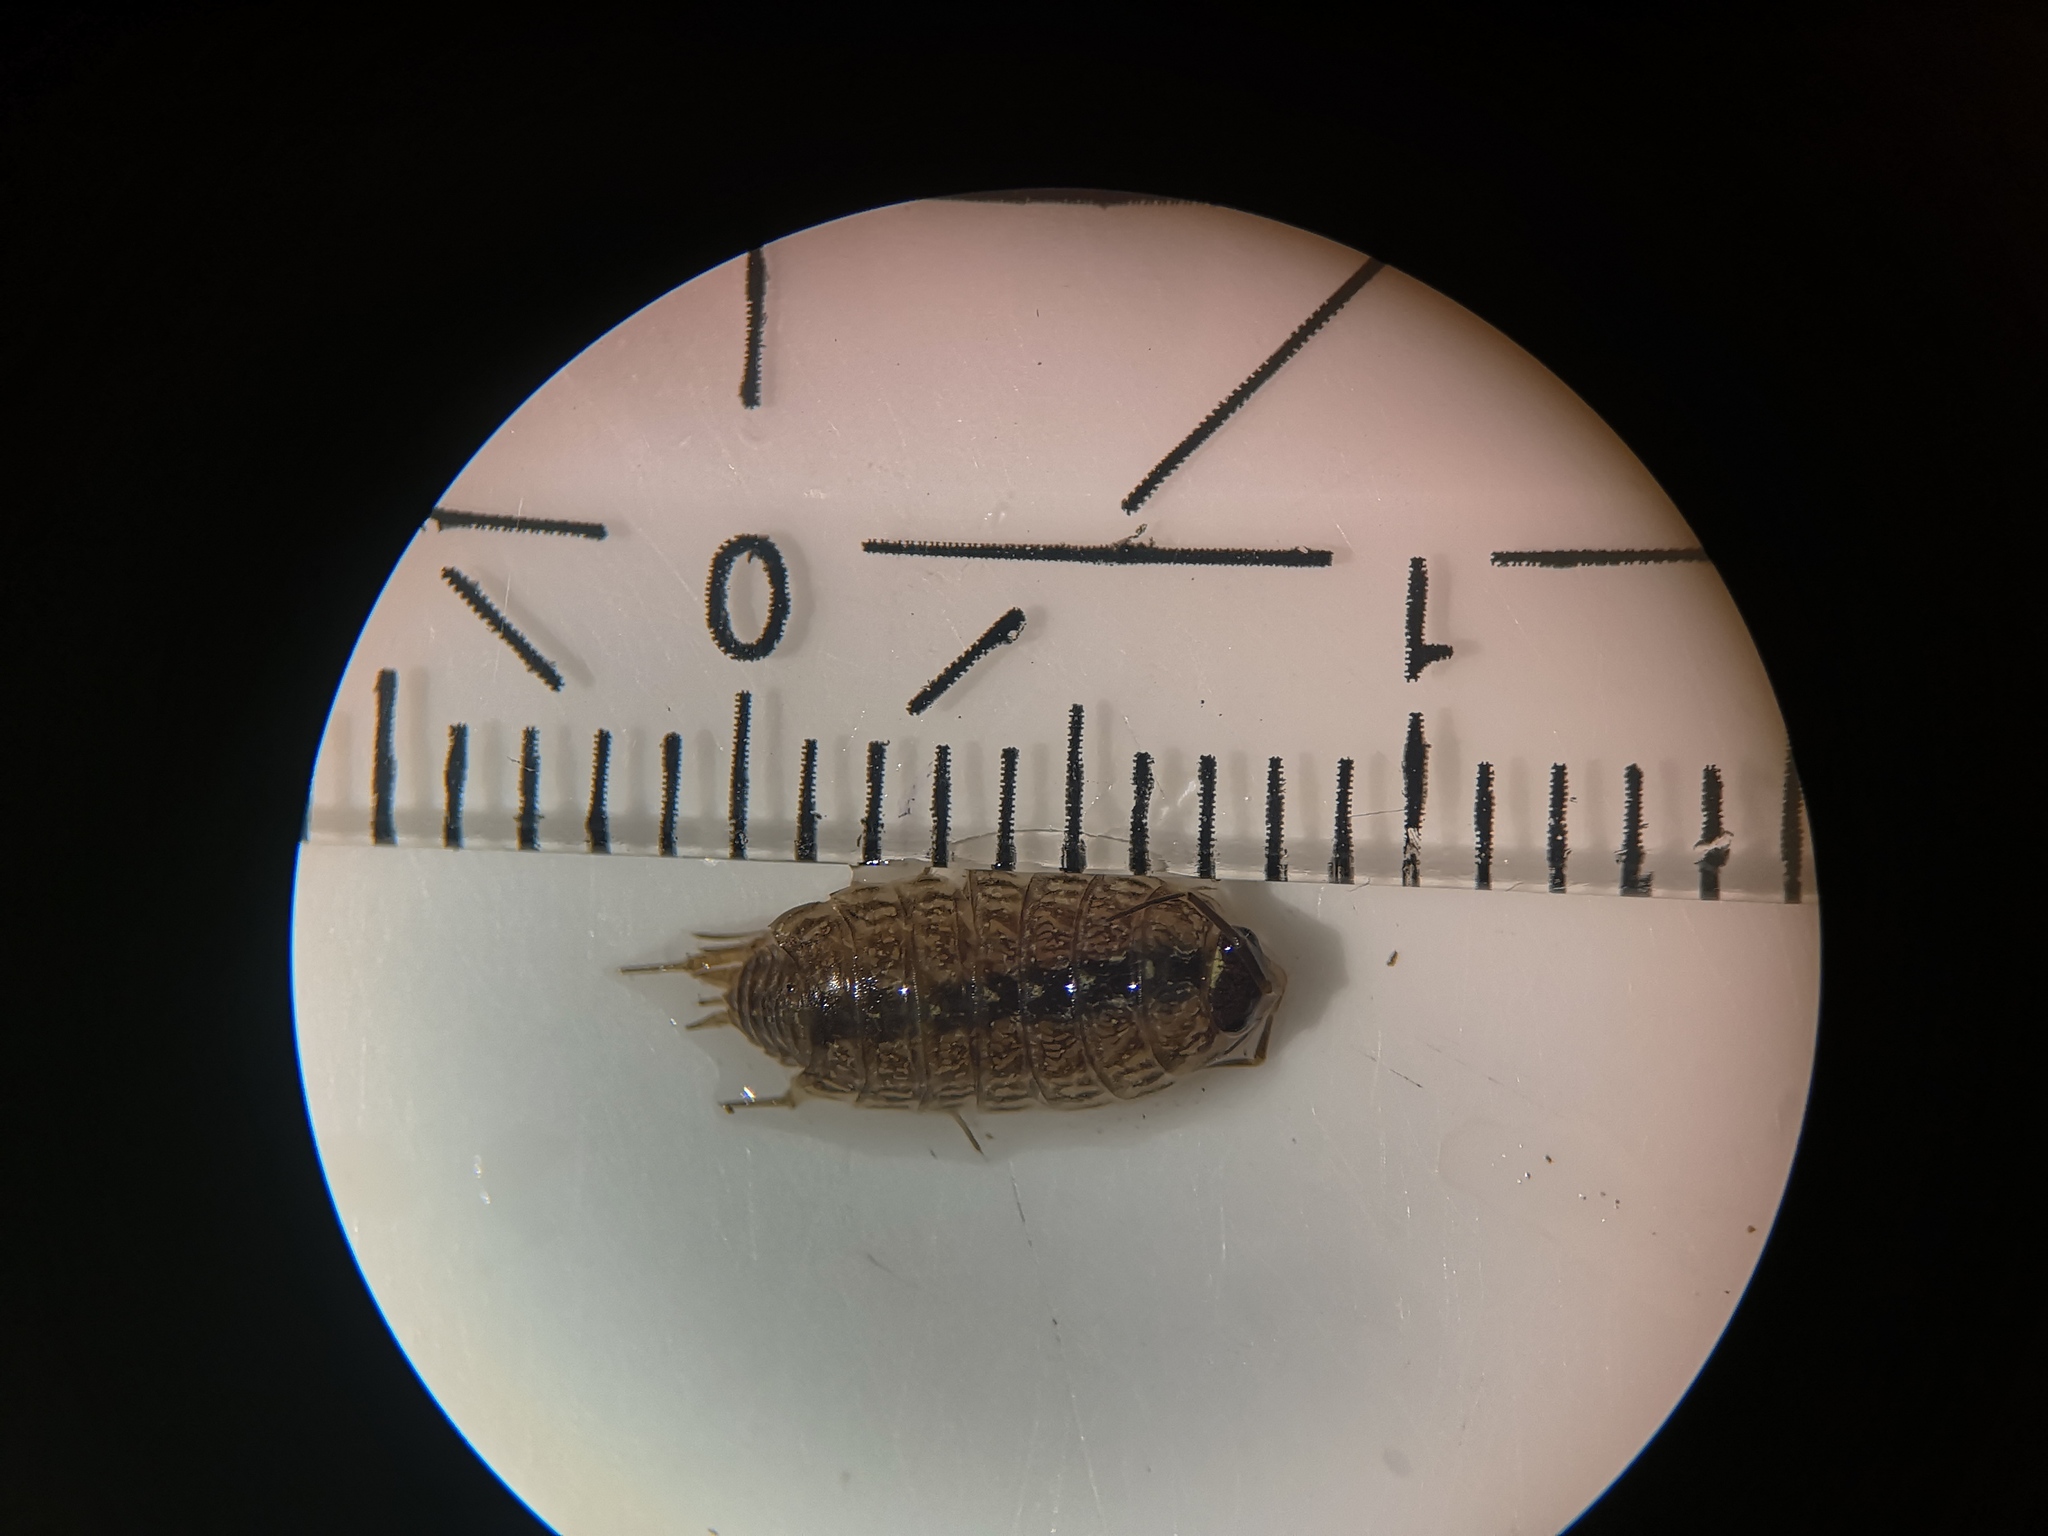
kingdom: Animalia
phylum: Arthropoda
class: Malacostraca
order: Isopoda
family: Philosciidae
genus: Philoscia
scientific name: Philoscia muscorum
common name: Common striped woodlouse
